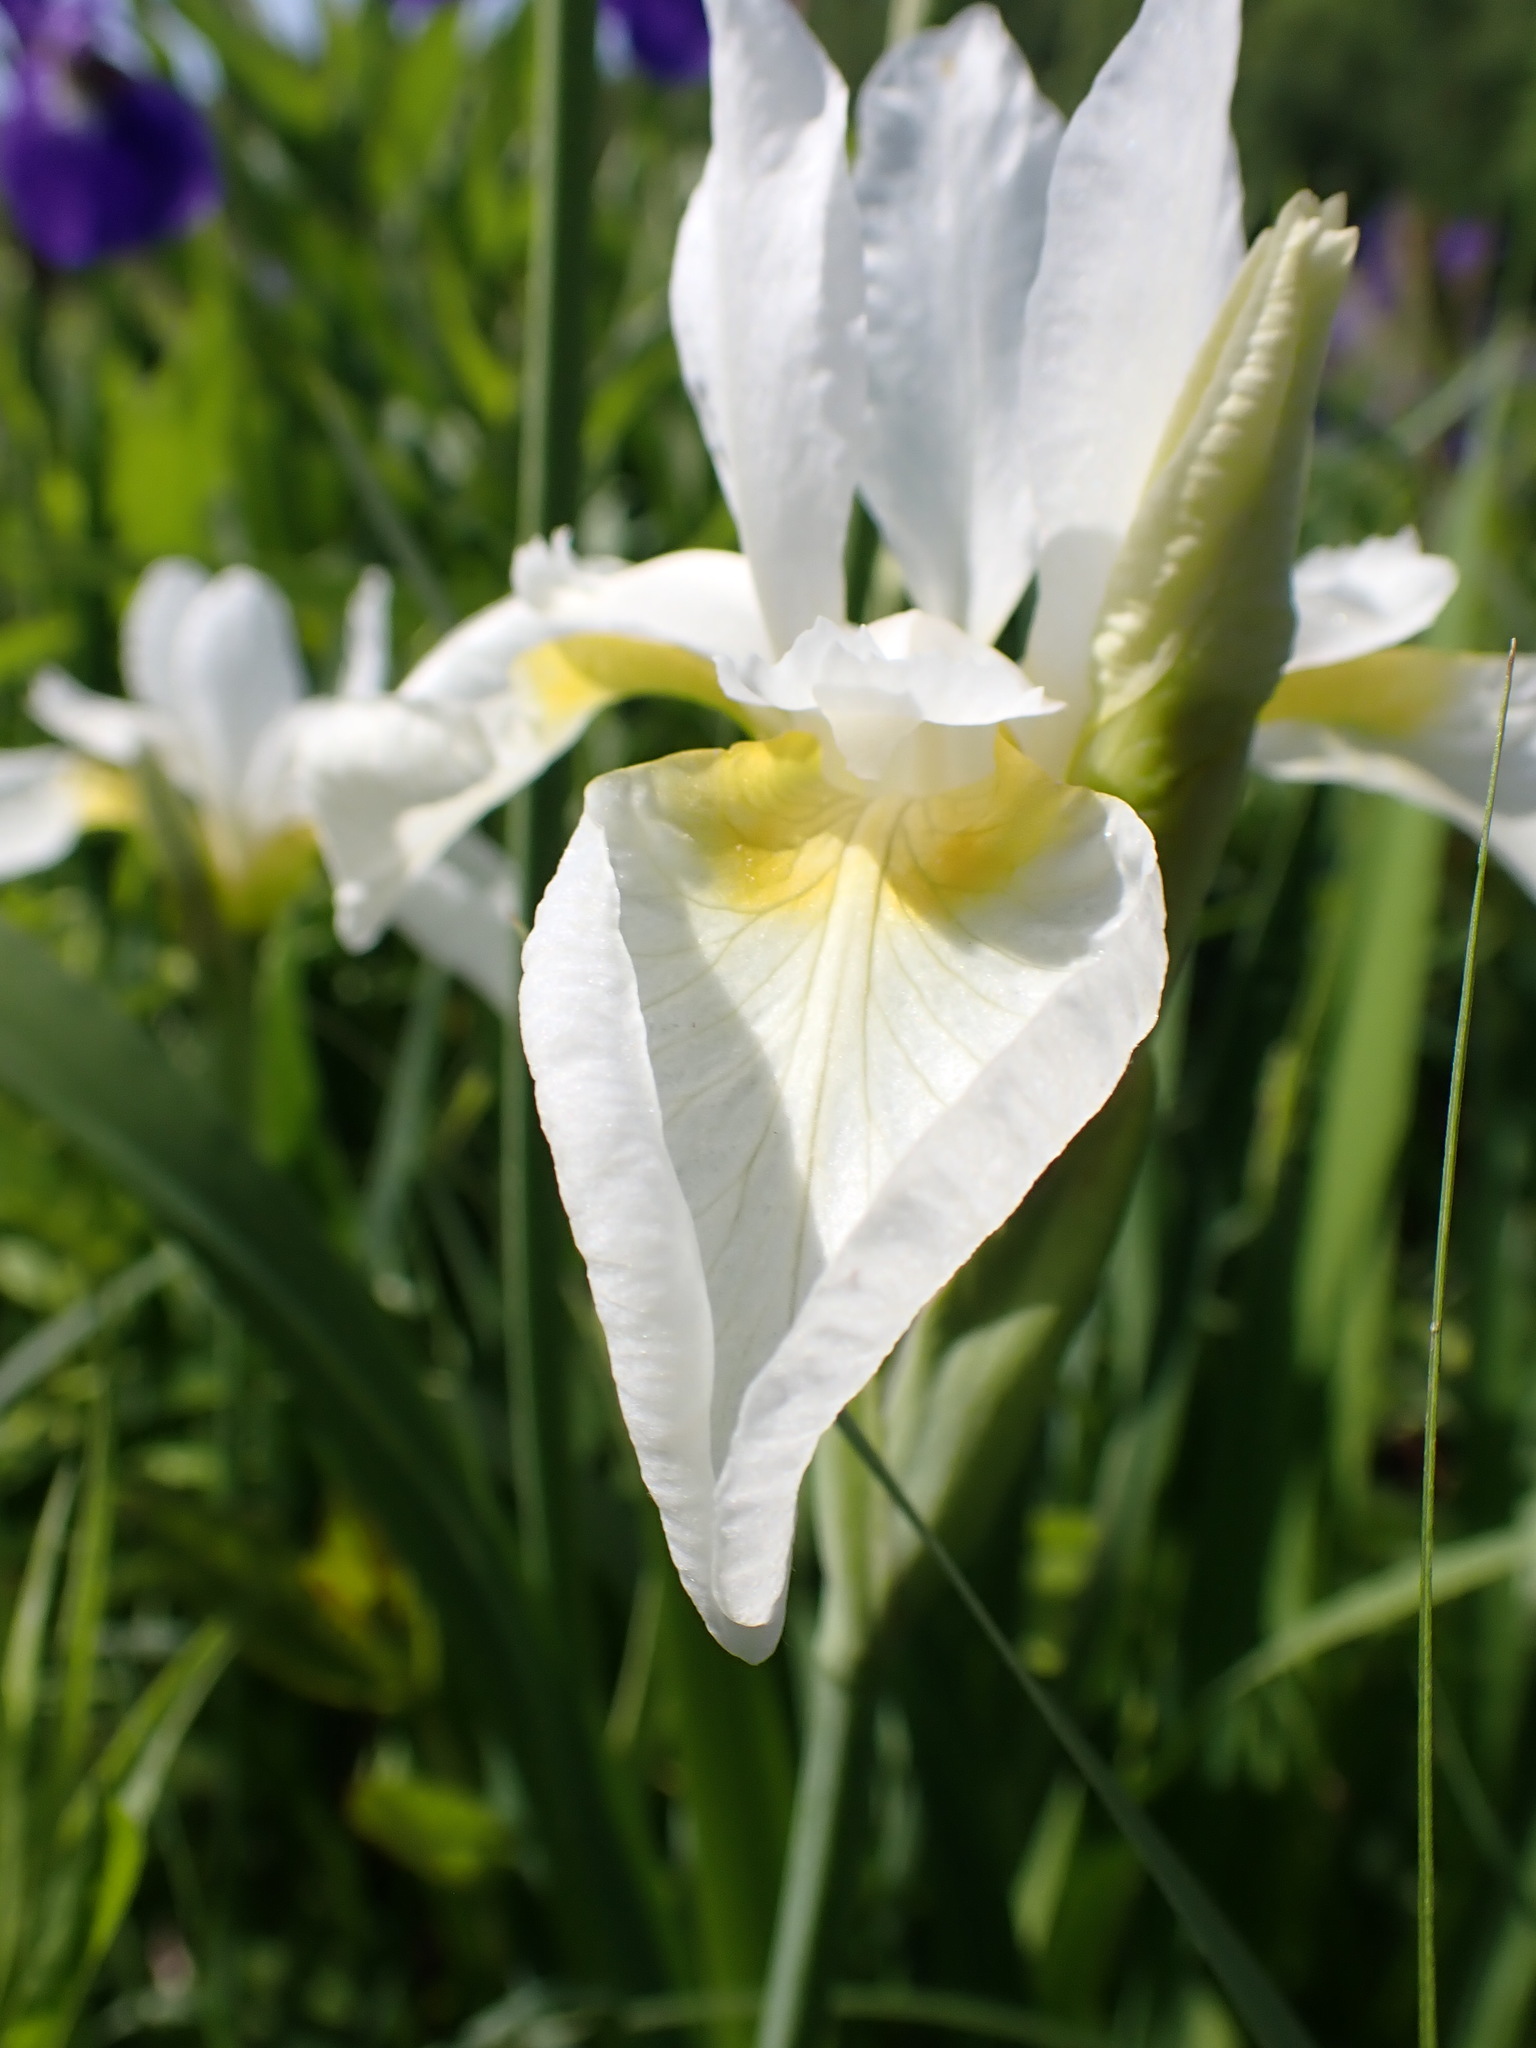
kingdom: Plantae
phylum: Tracheophyta
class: Liliopsida
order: Asparagales
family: Iridaceae
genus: Iris
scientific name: Iris sanguinea
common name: Blood iris
